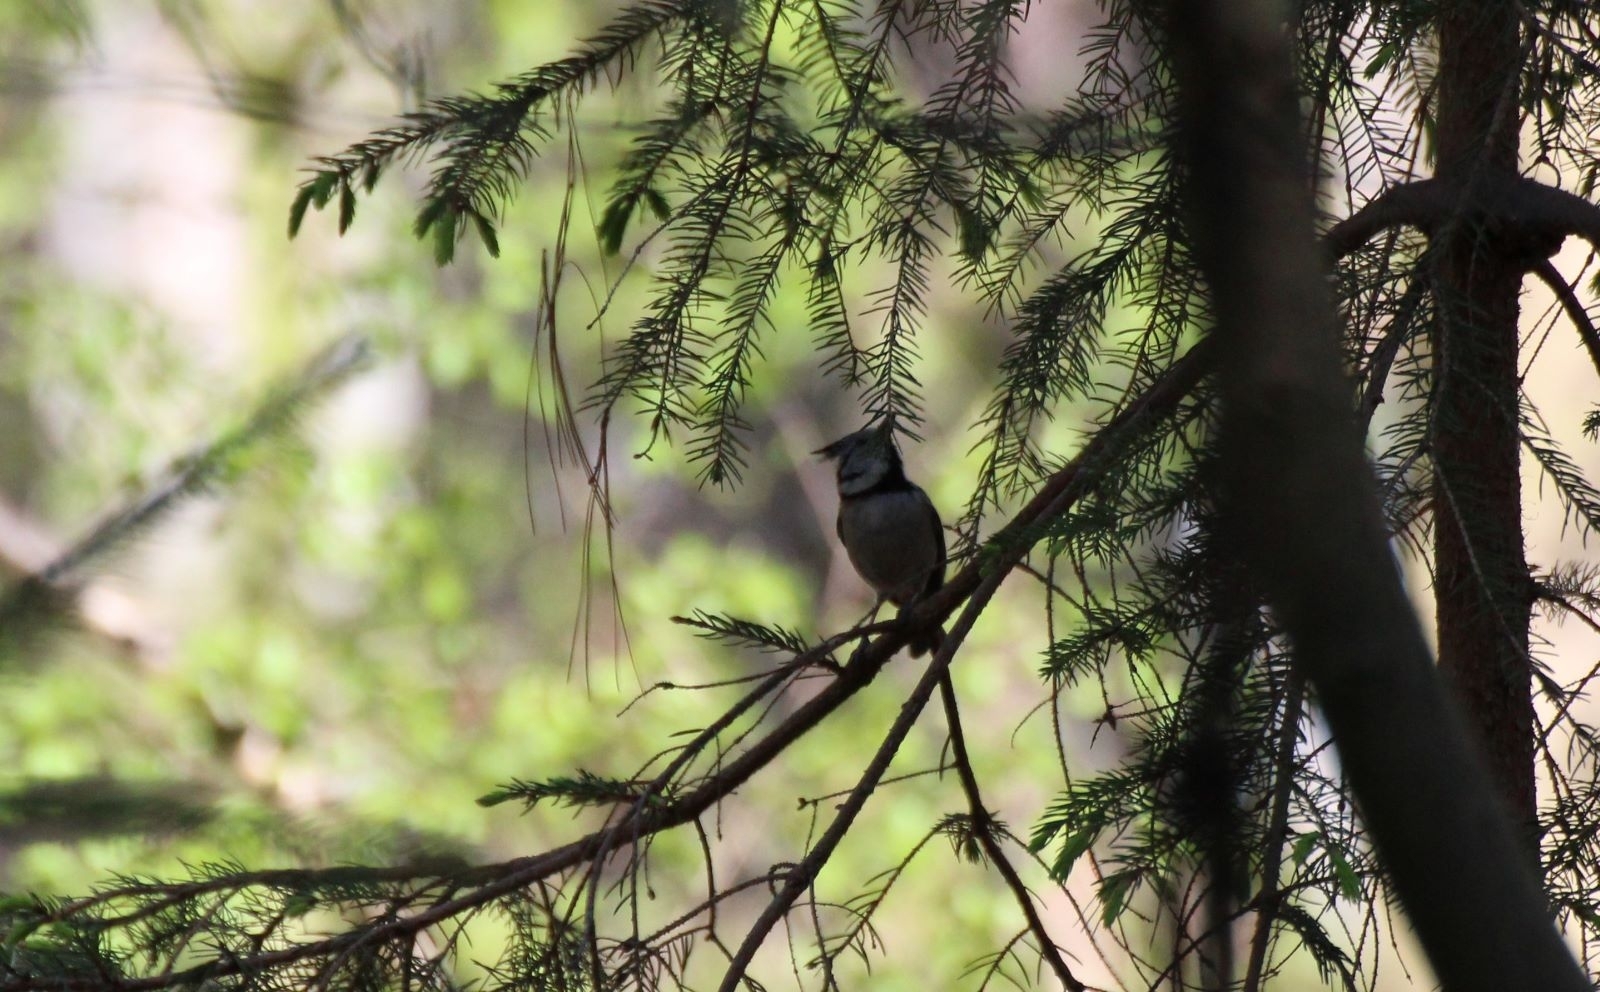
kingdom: Animalia
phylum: Chordata
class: Aves
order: Passeriformes
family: Paridae
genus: Lophophanes
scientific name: Lophophanes cristatus
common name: European crested tit
